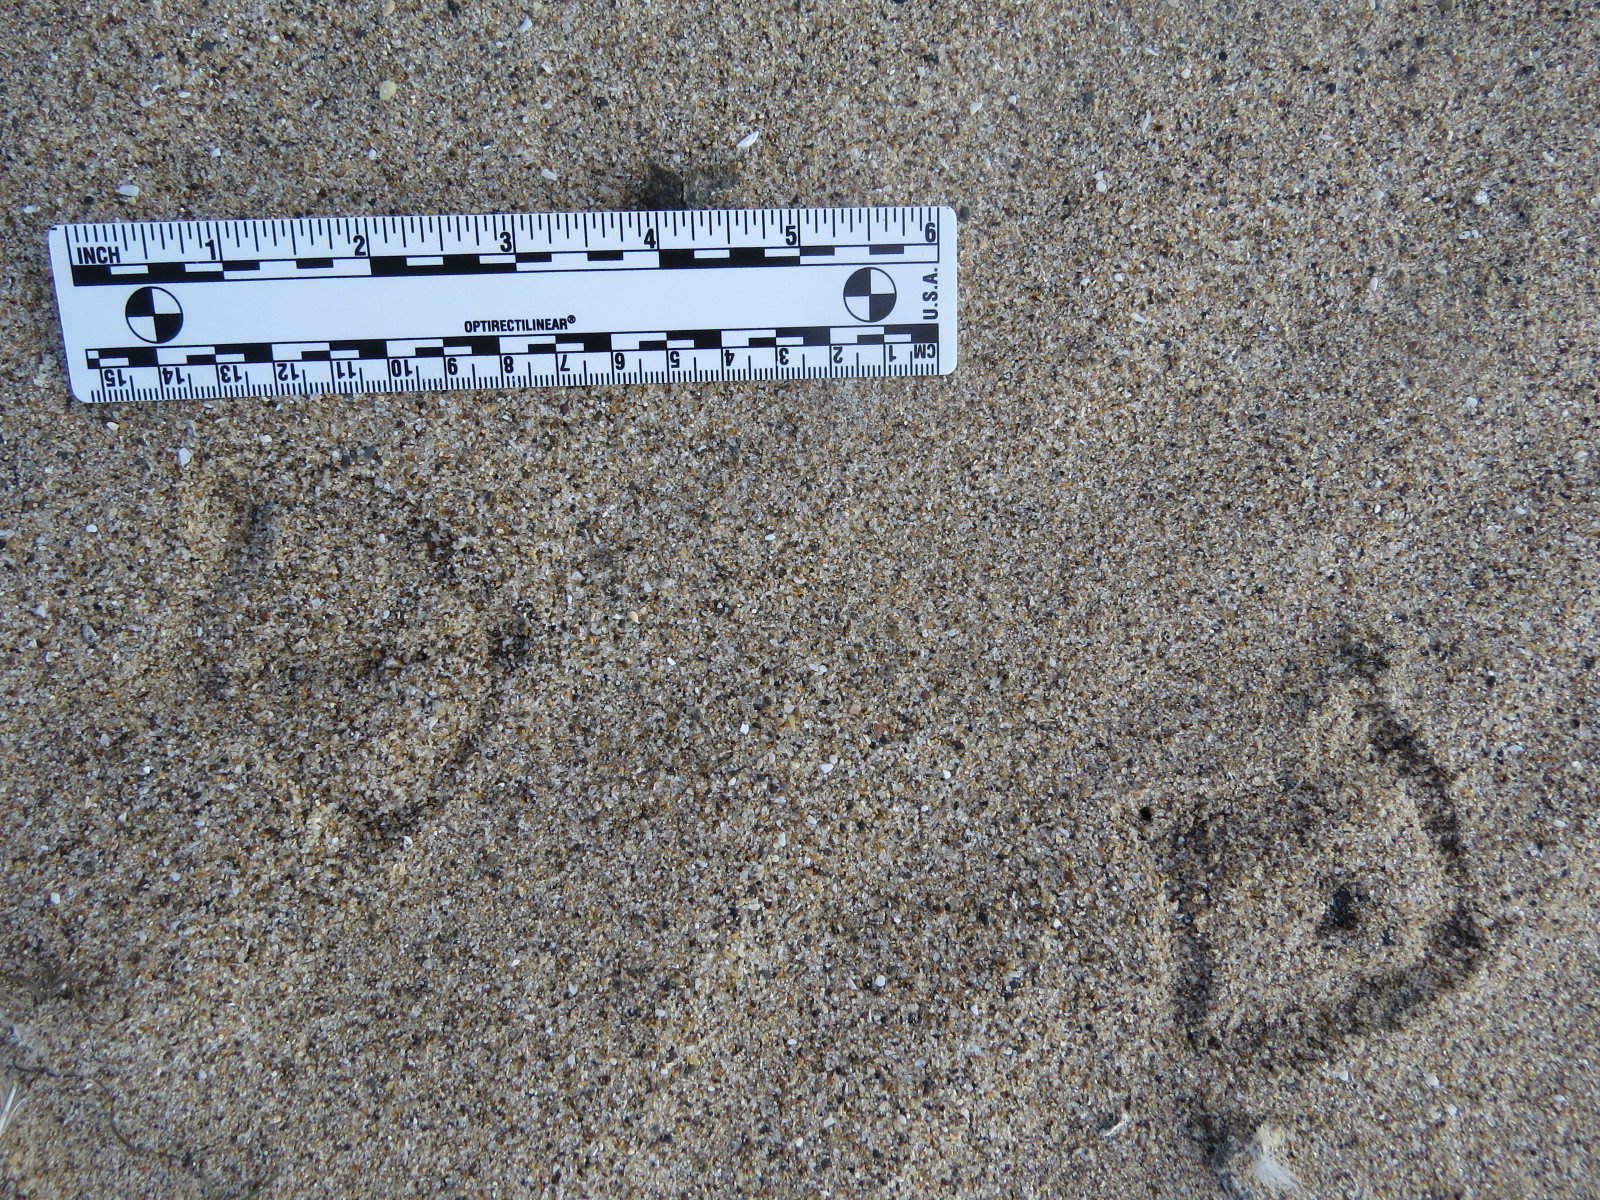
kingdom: Animalia
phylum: Chordata
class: Aves
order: Charadriiformes
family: Laridae
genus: Larus
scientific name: Larus occidentalis
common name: Western gull
